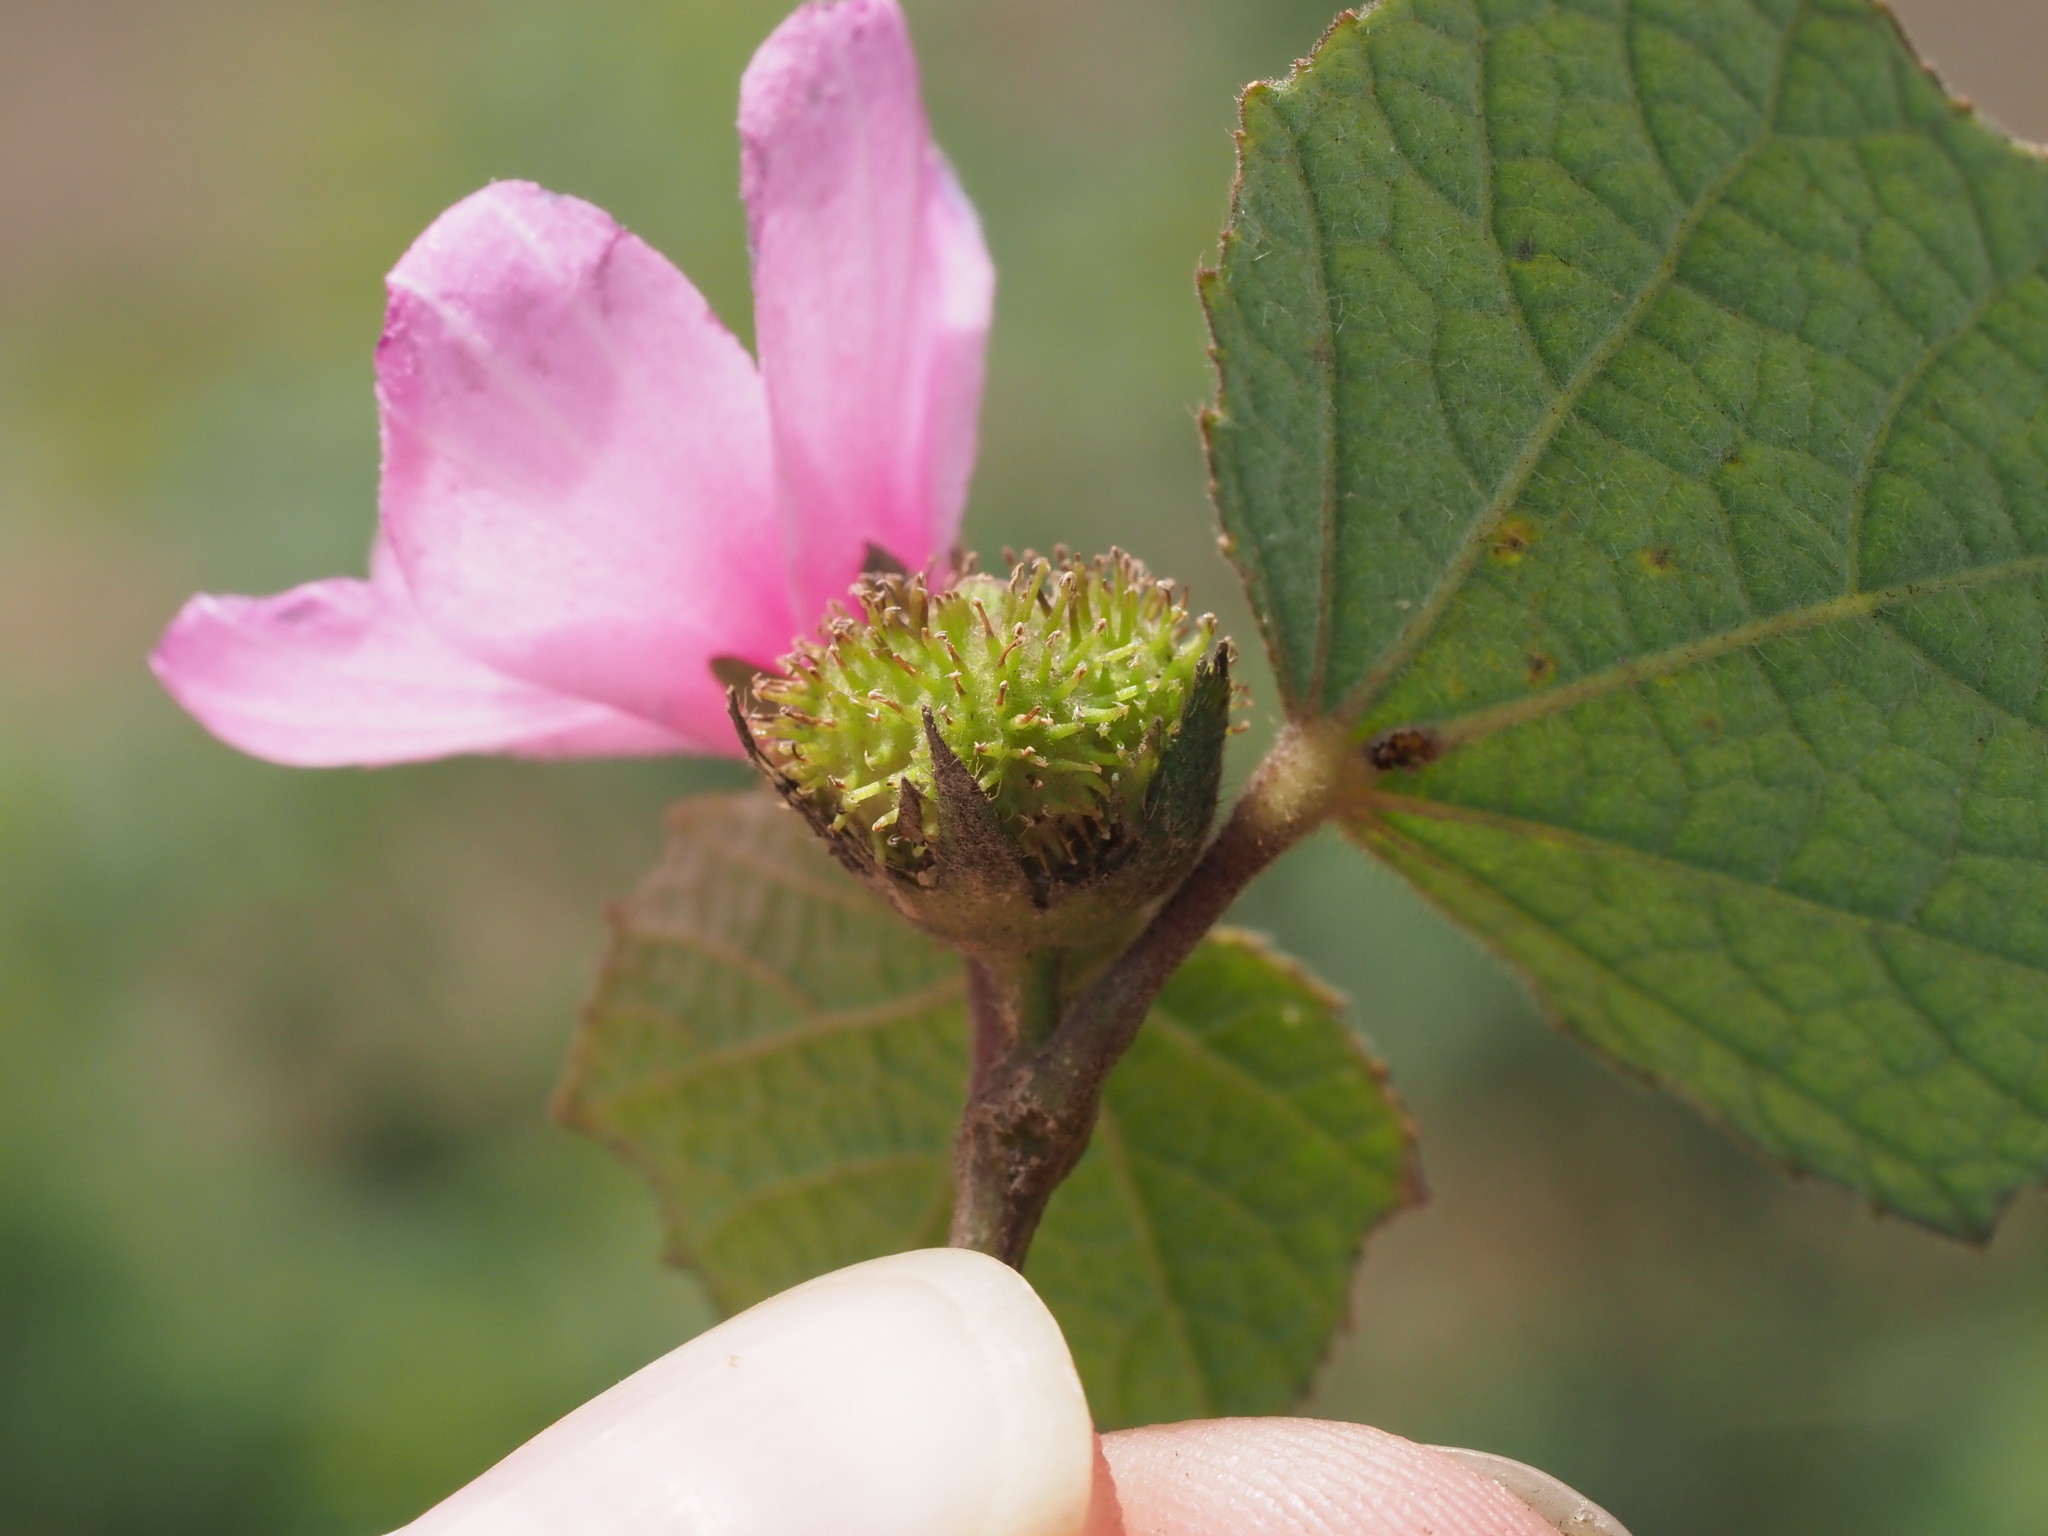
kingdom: Plantae
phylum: Tracheophyta
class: Magnoliopsida
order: Malvales
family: Malvaceae
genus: Urena
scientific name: Urena lobata
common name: Caesarweed
